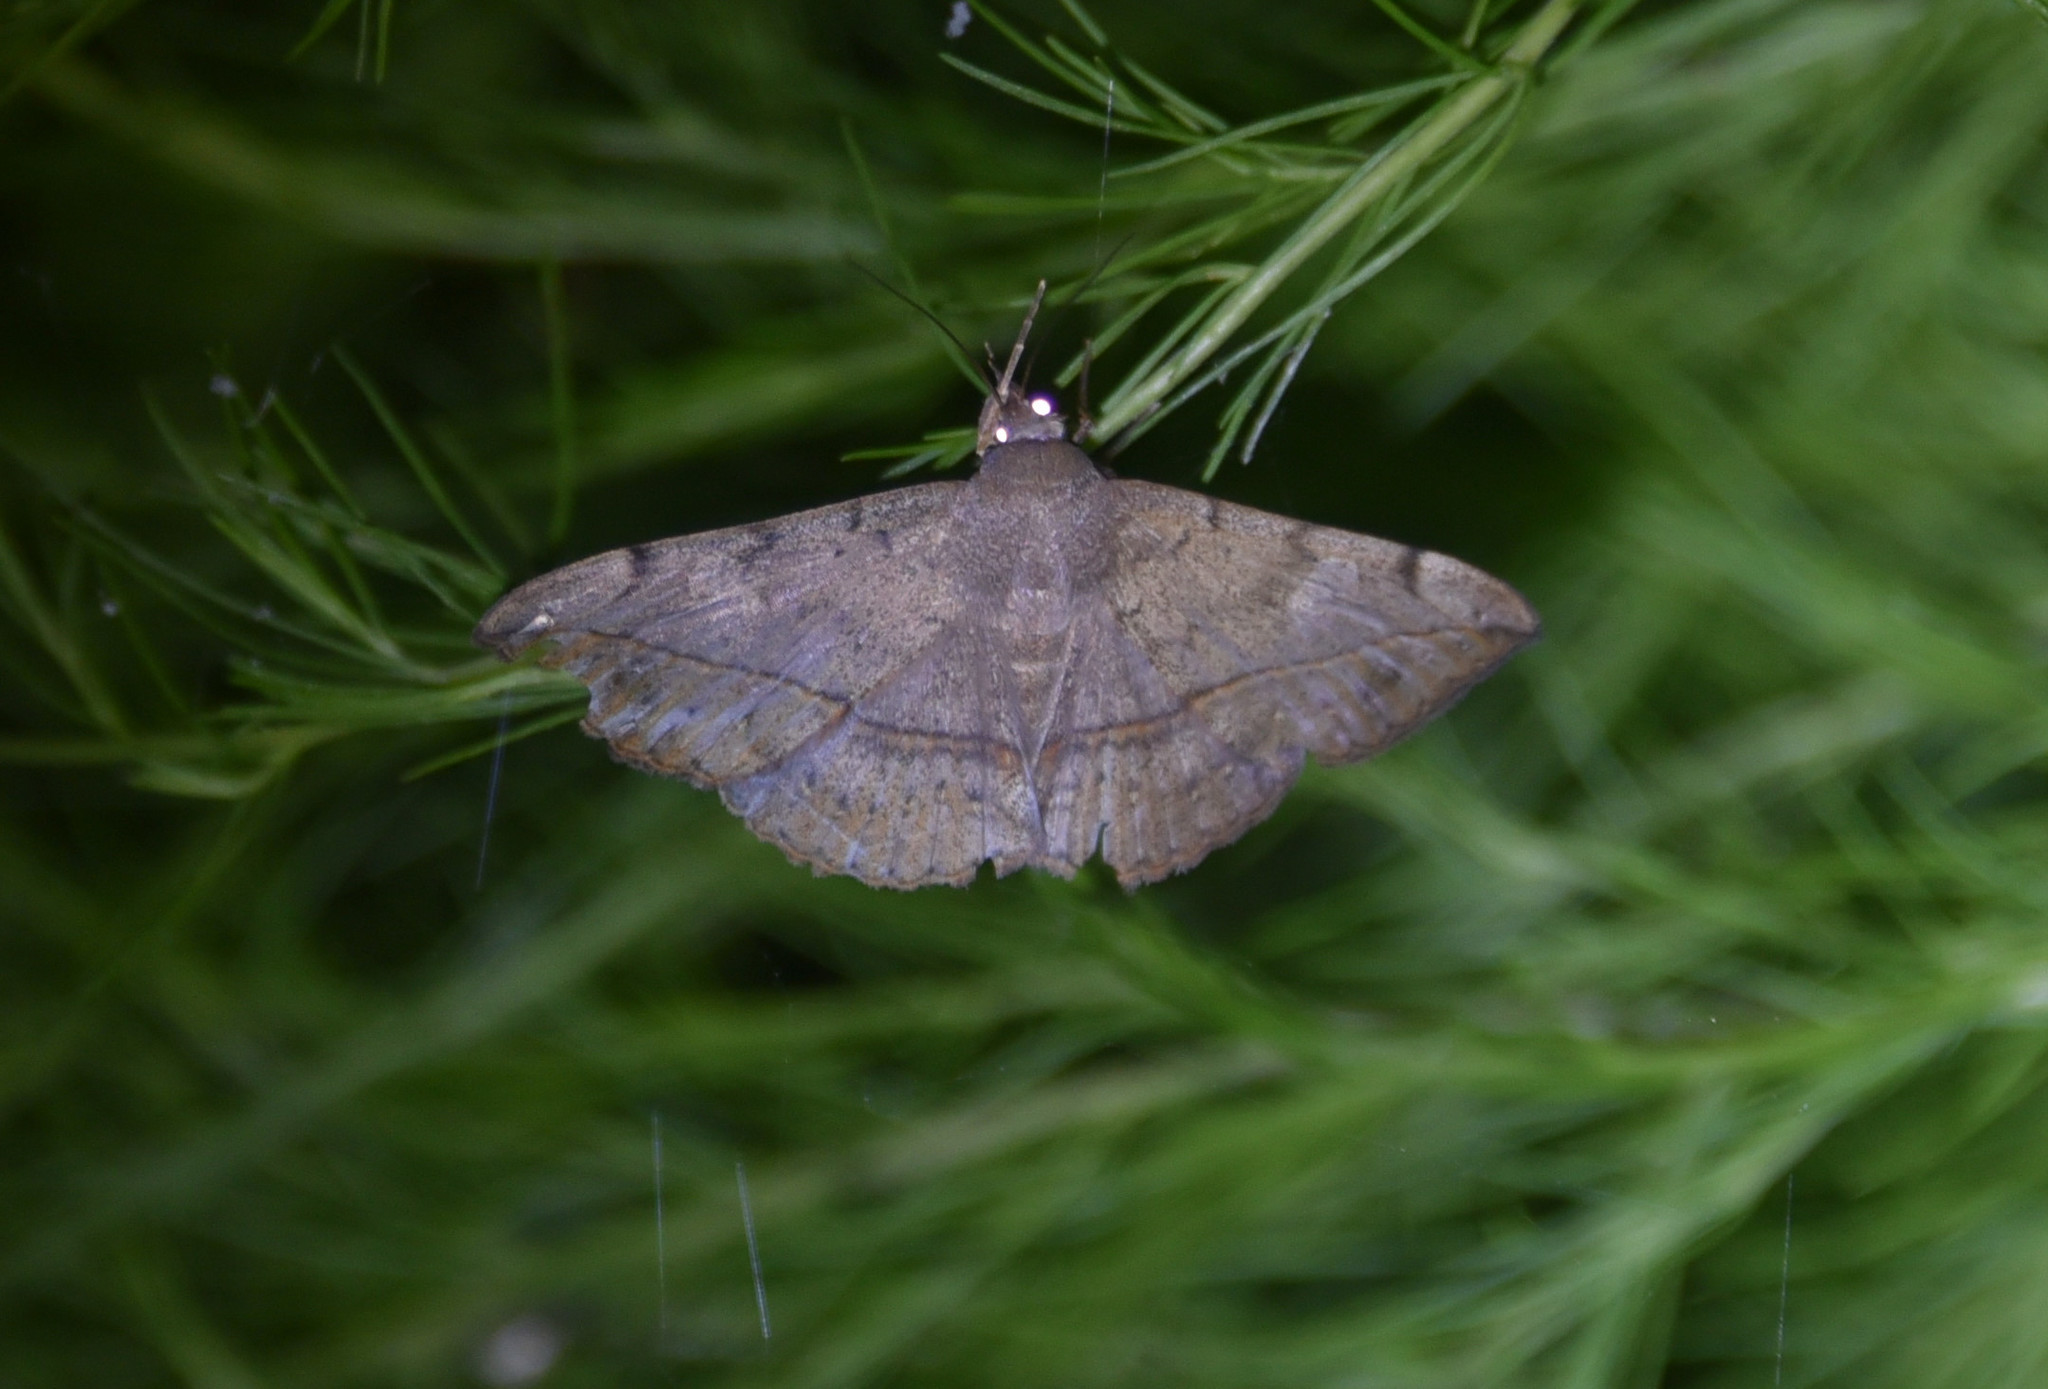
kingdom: Animalia
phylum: Arthropoda
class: Insecta
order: Lepidoptera
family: Erebidae
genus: Anticarsia
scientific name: Anticarsia gemmatalis
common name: Cutworm moth
